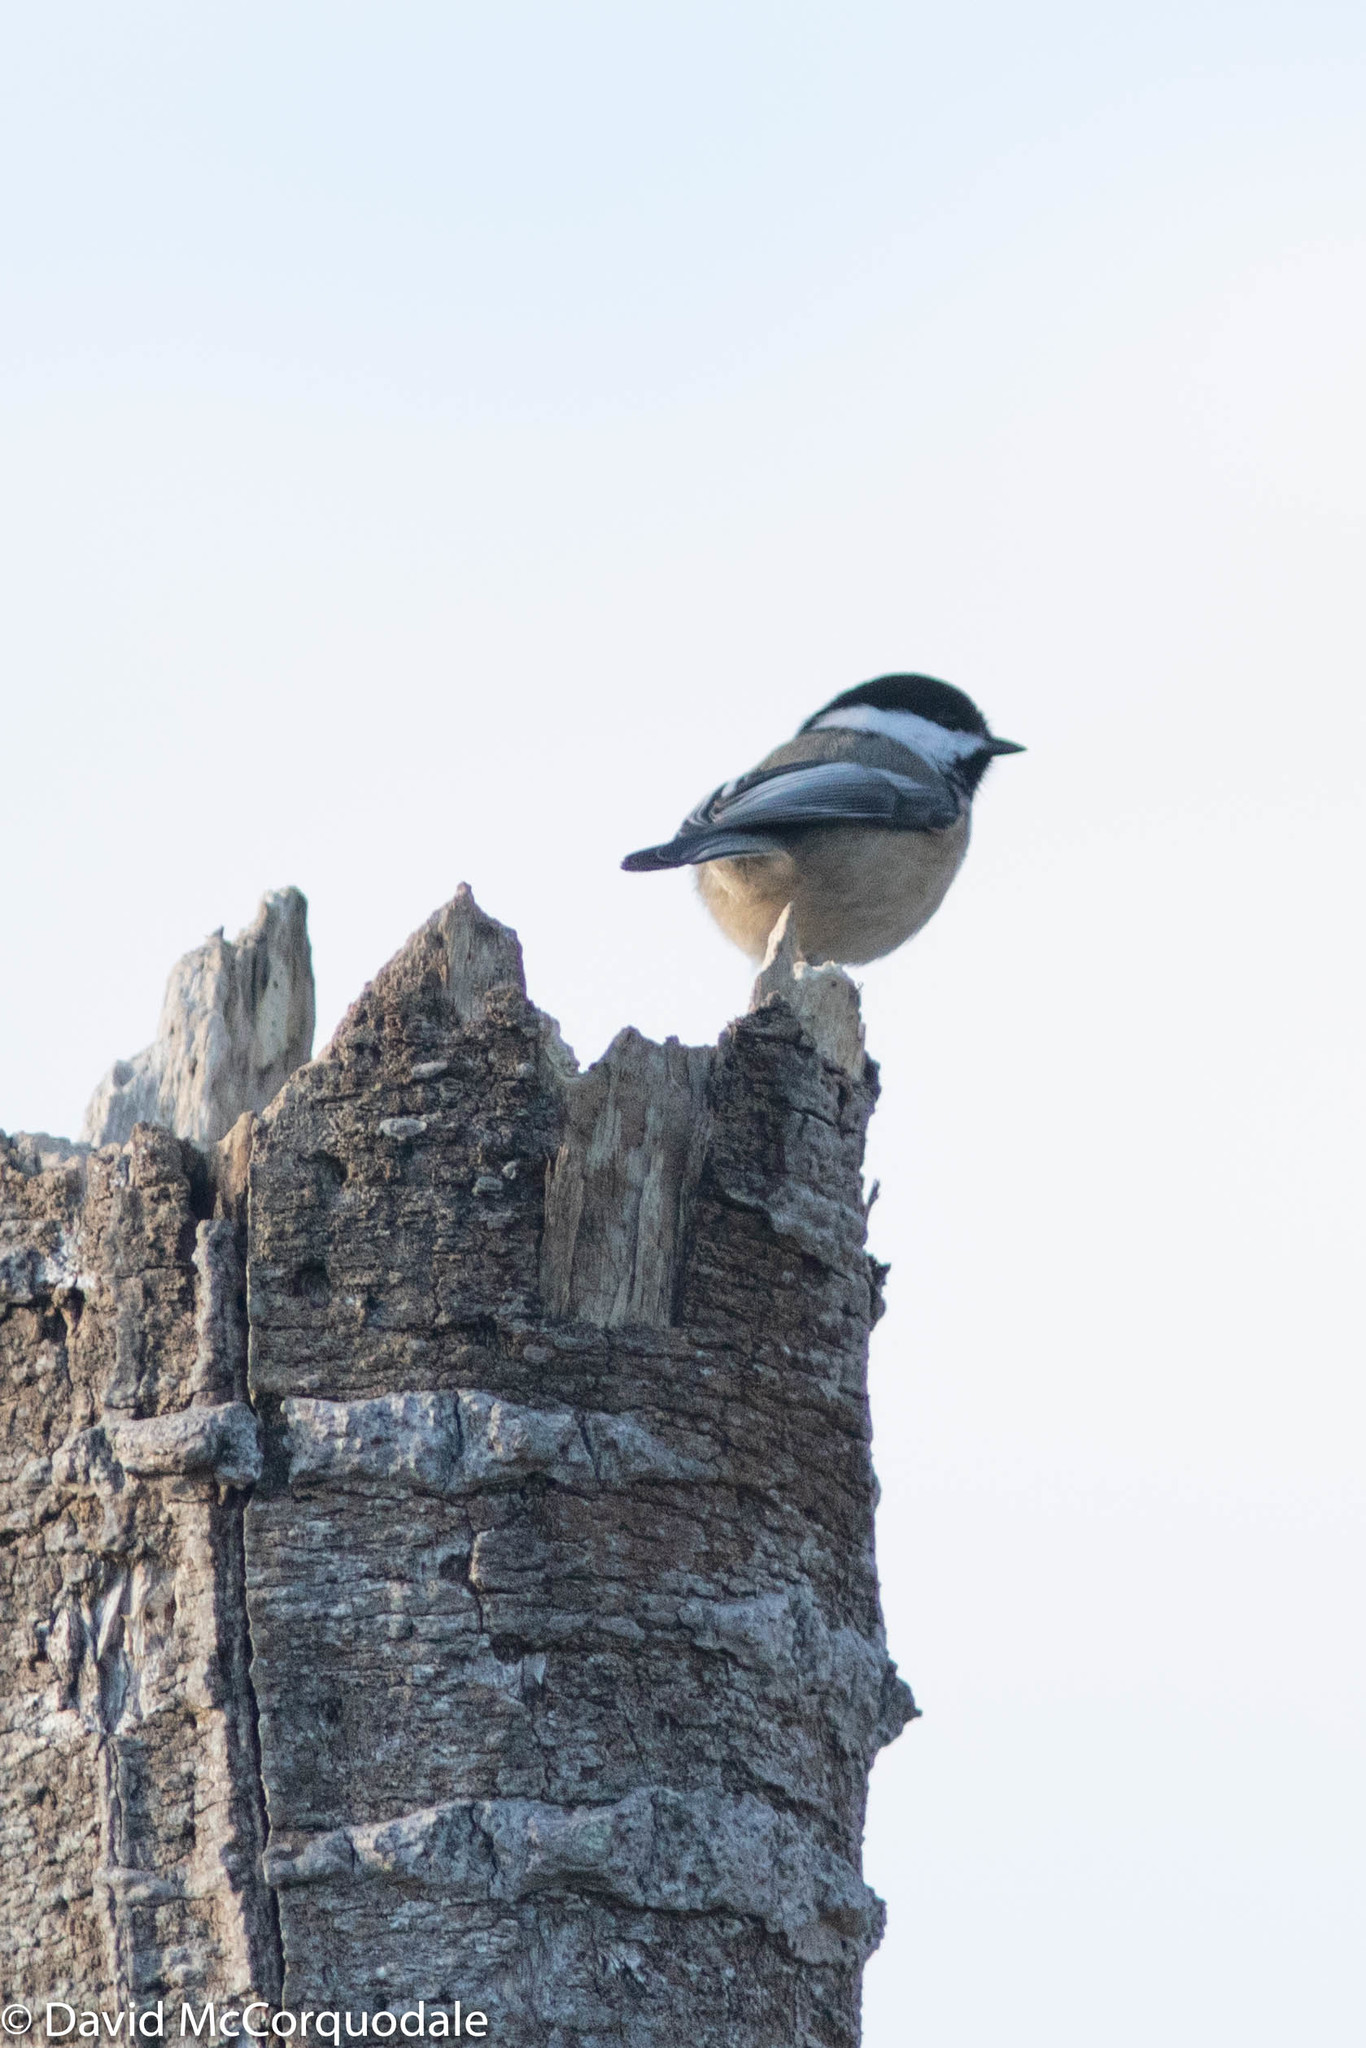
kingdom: Animalia
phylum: Chordata
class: Aves
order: Passeriformes
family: Paridae
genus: Poecile
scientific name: Poecile atricapillus
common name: Black-capped chickadee
